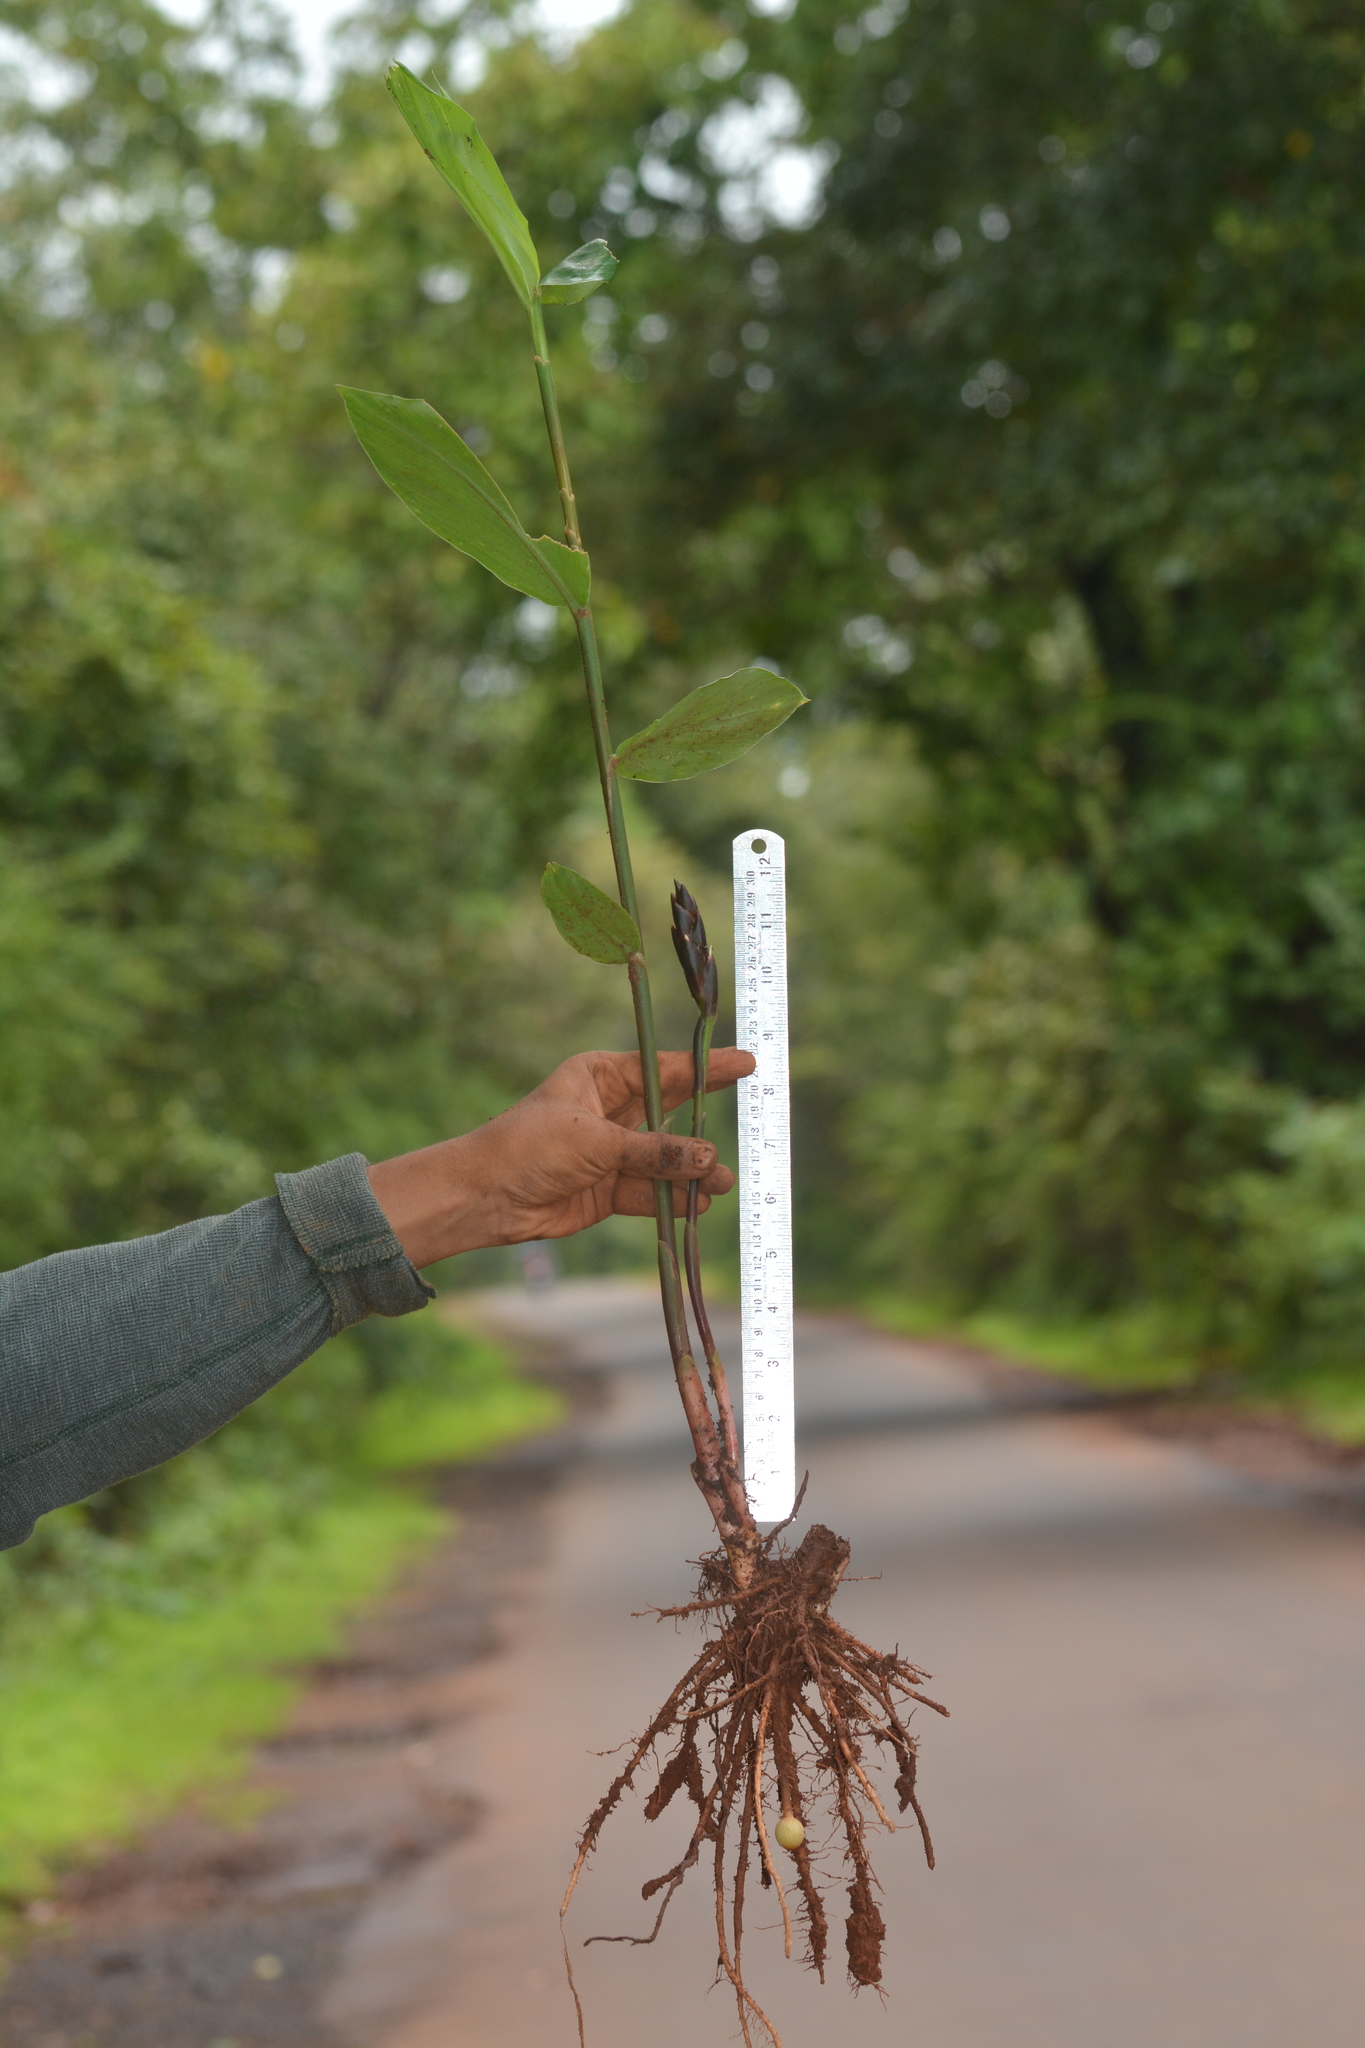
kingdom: Plantae
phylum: Tracheophyta
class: Liliopsida
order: Zingiberales
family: Zingiberaceae
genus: Zingiber
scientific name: Zingiber anamalayanum
